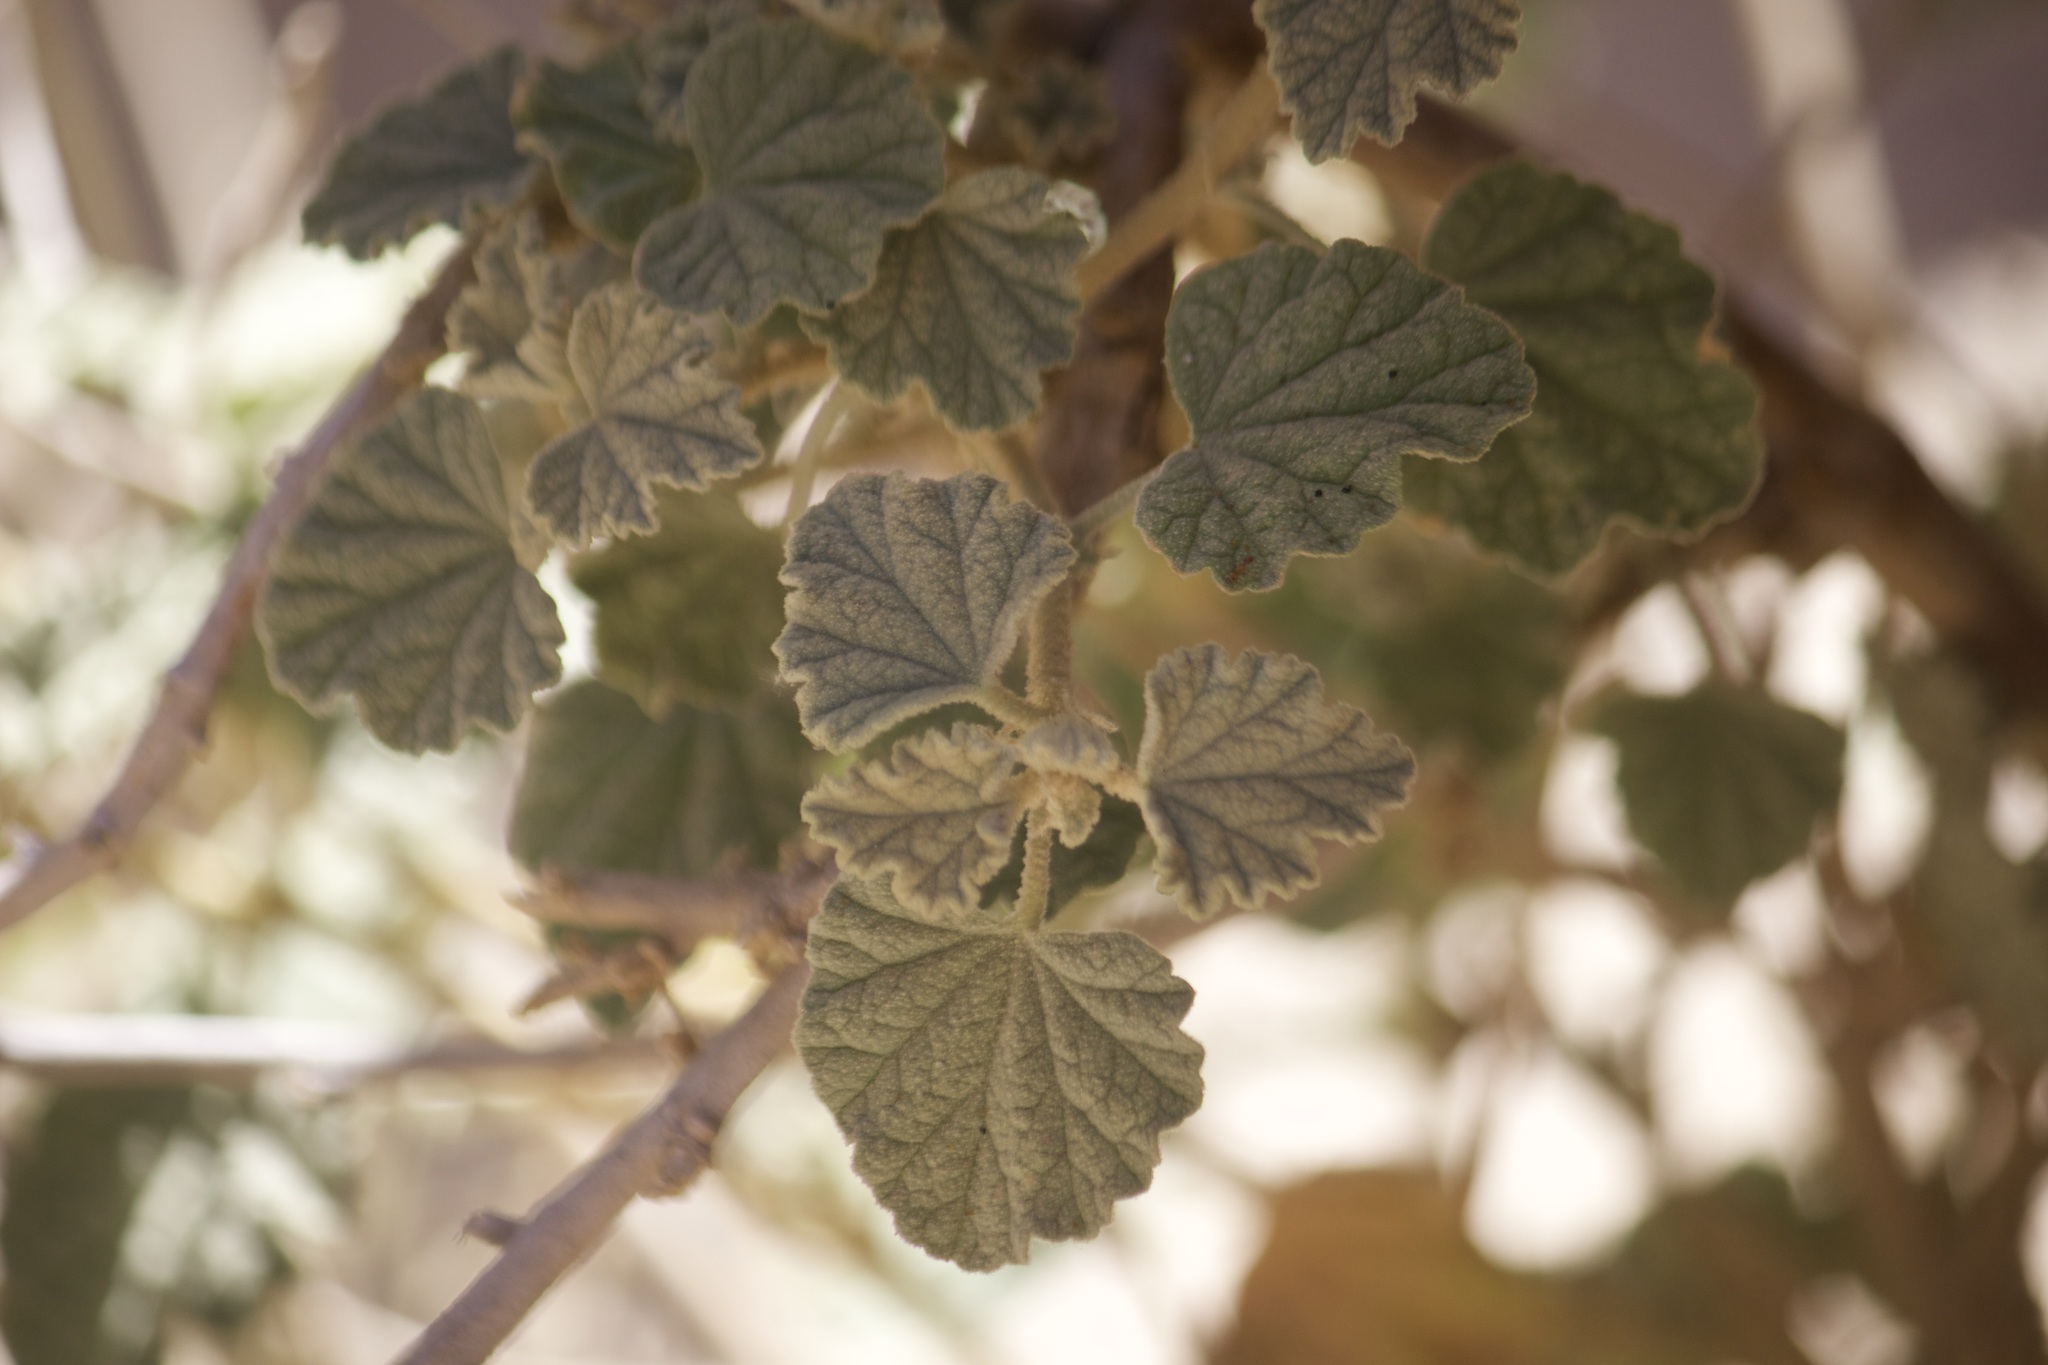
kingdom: Plantae
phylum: Tracheophyta
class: Magnoliopsida
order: Malvales
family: Malvaceae
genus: Sphaeralcea
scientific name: Sphaeralcea ambigua
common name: Apricot globe-mallow
